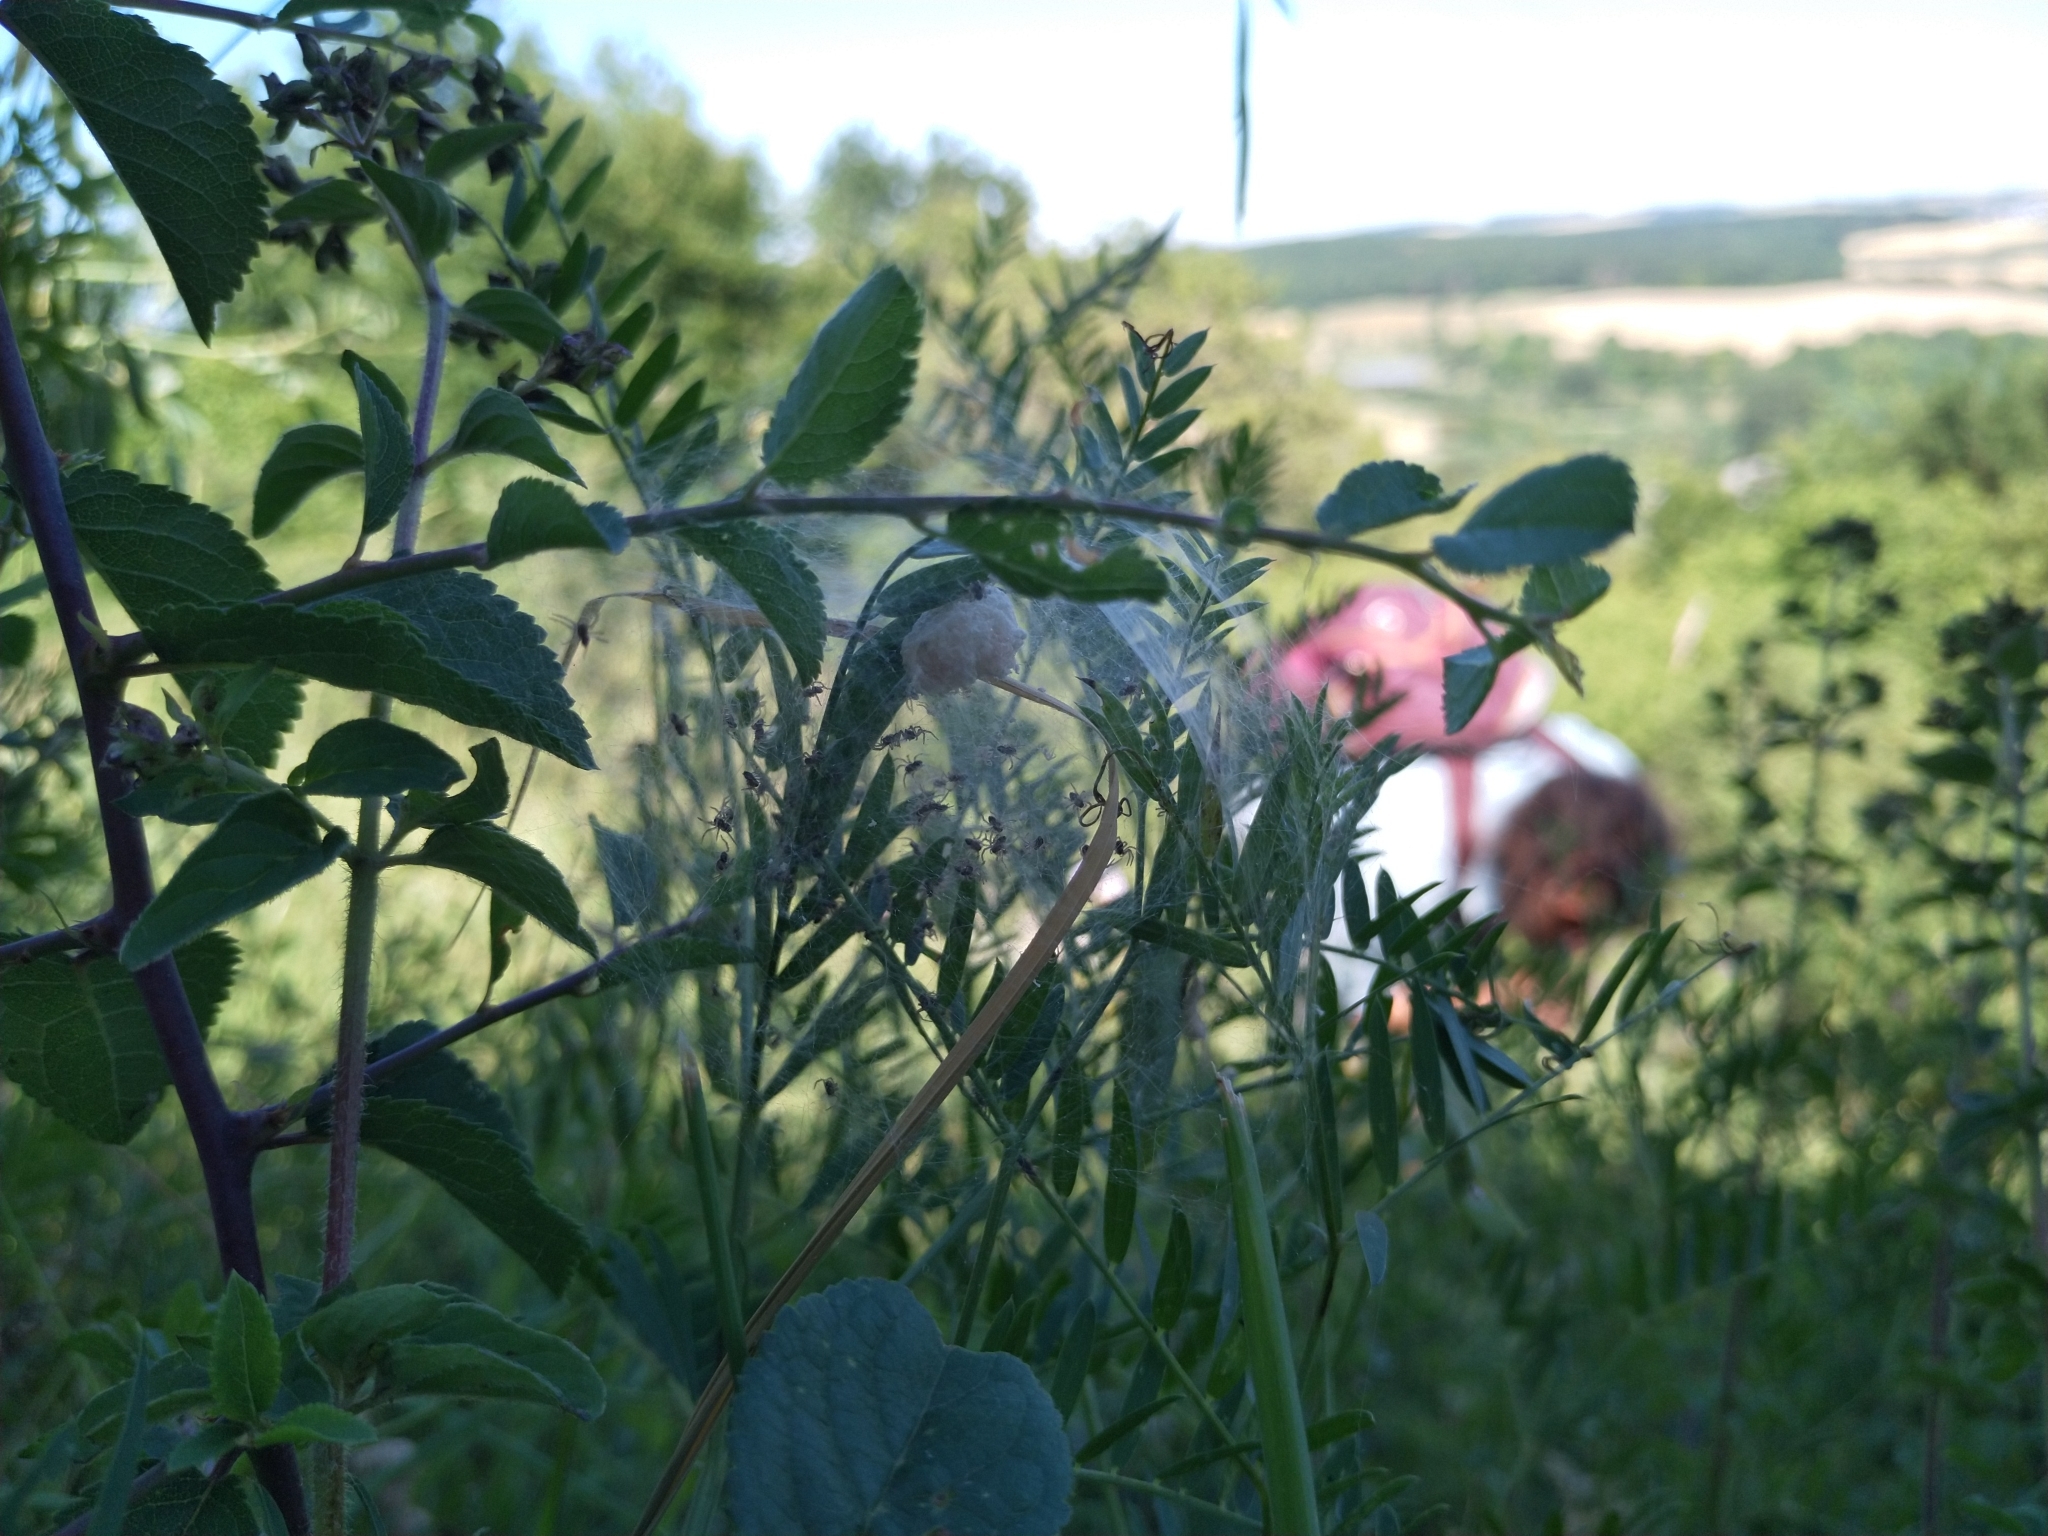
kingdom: Animalia
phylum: Arthropoda
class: Arachnida
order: Araneae
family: Pisauridae
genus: Pisaura
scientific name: Pisaura mirabilis
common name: Tent spider
